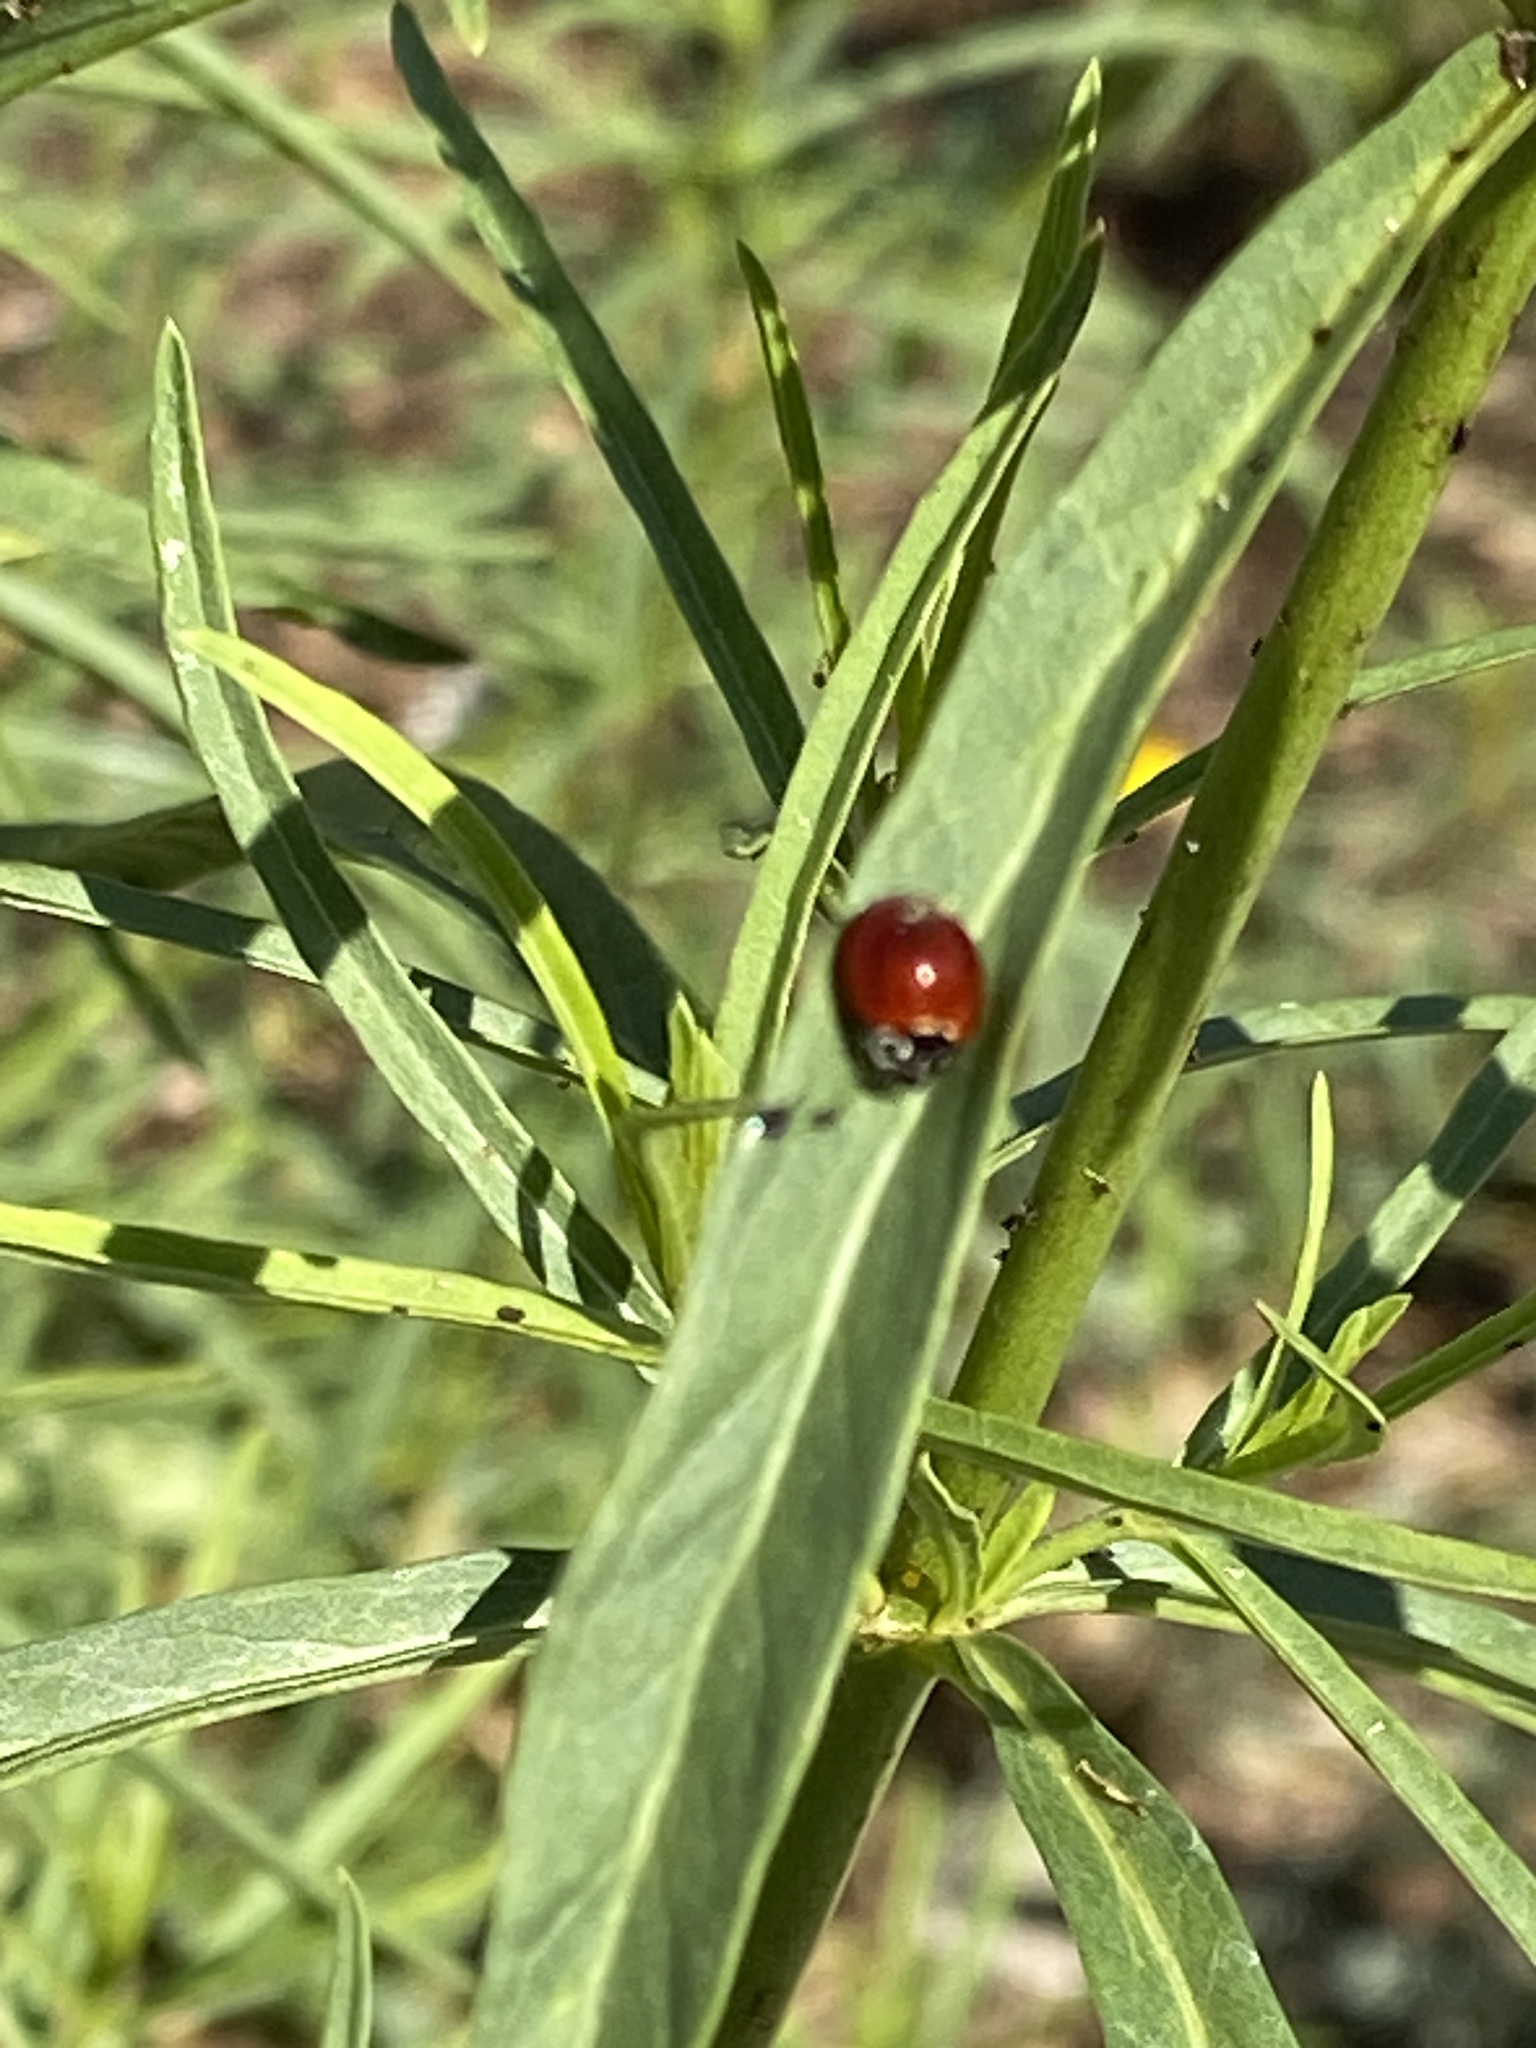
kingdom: Animalia
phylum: Arthropoda
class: Insecta
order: Coleoptera
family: Coccinellidae
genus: Cycloneda
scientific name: Cycloneda sanguinea
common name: Ladybird beetle
